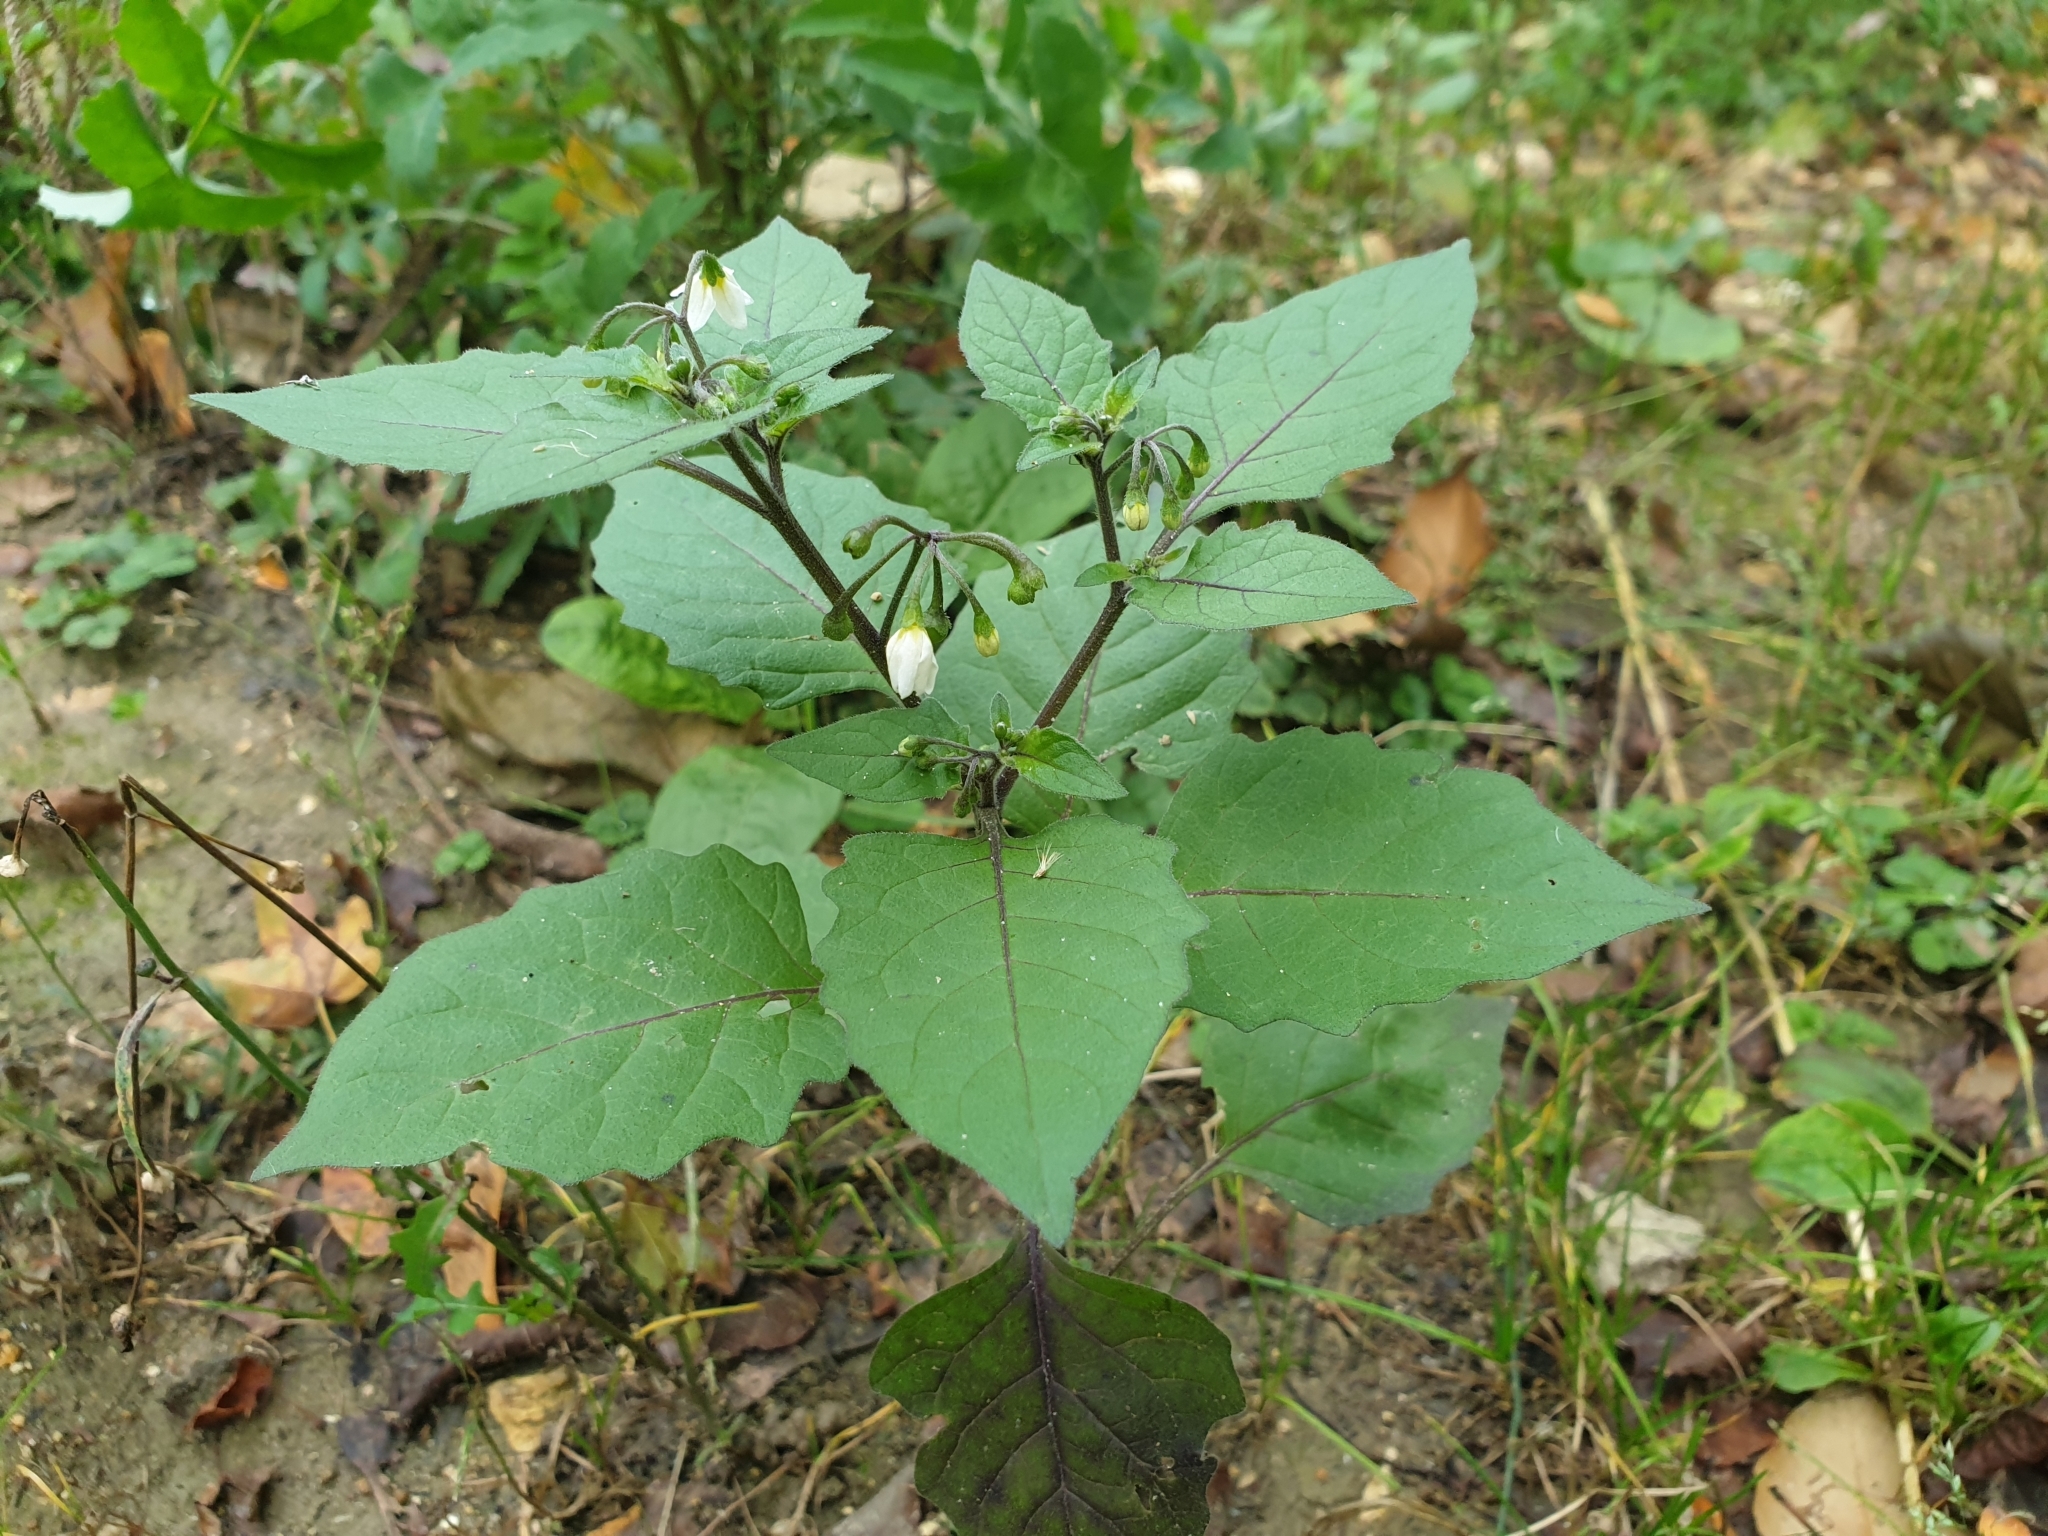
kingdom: Plantae
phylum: Tracheophyta
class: Magnoliopsida
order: Solanales
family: Solanaceae
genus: Solanum
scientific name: Solanum nigrum
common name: Black nightshade
